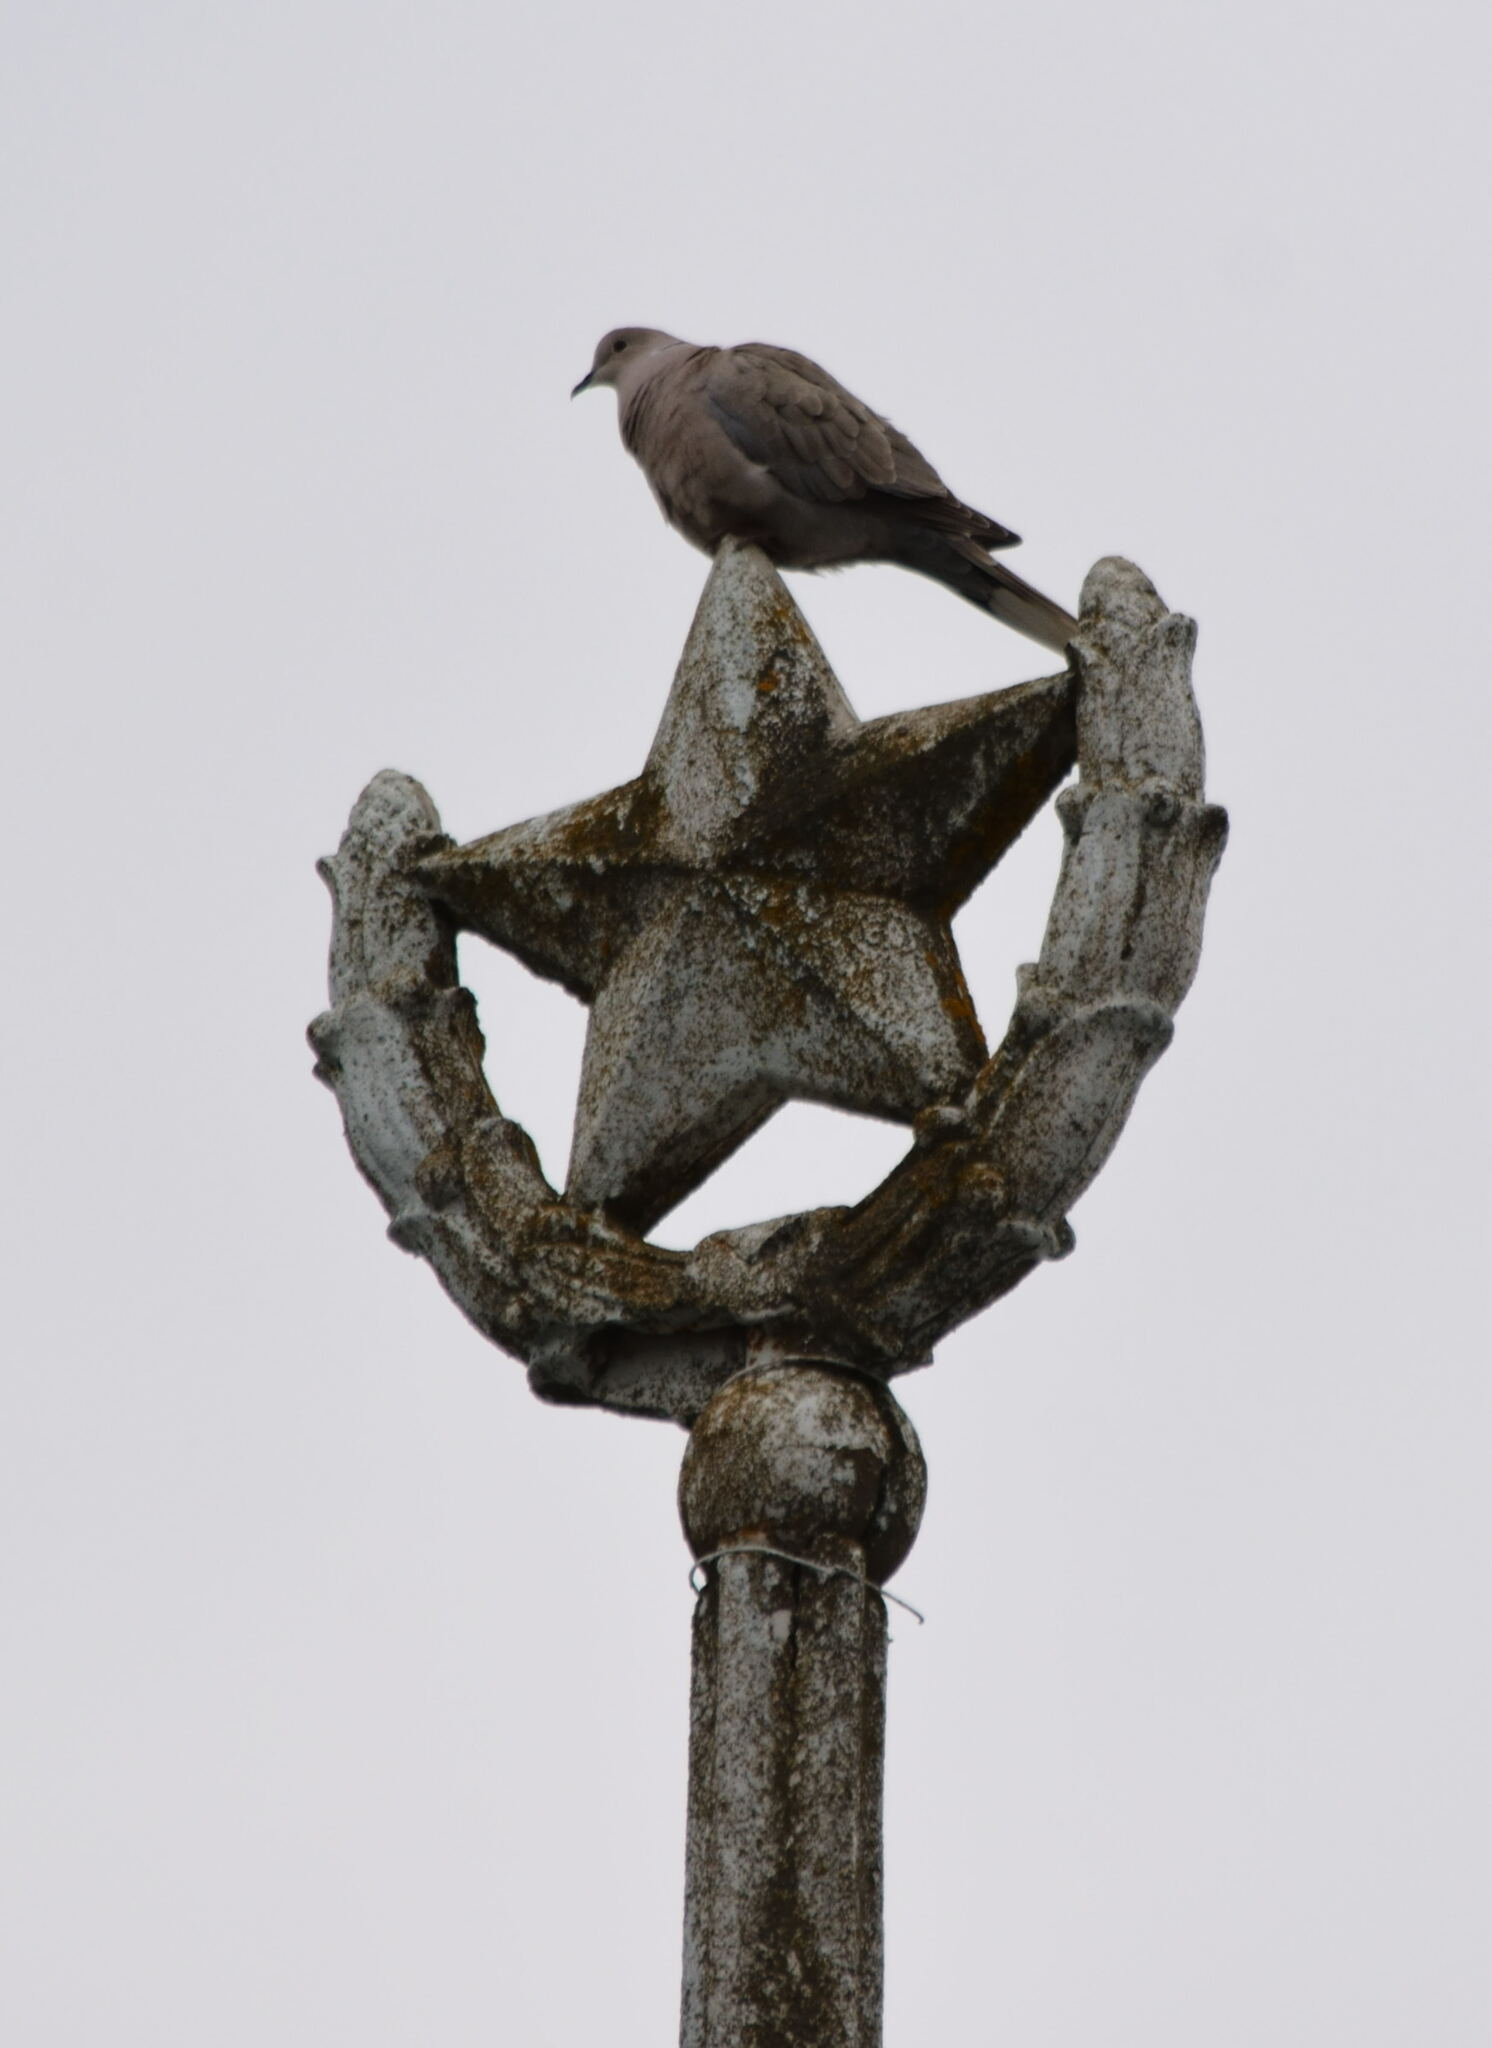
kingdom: Animalia
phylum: Chordata
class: Aves
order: Columbiformes
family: Columbidae
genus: Streptopelia
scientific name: Streptopelia decaocto
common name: Eurasian collared dove
